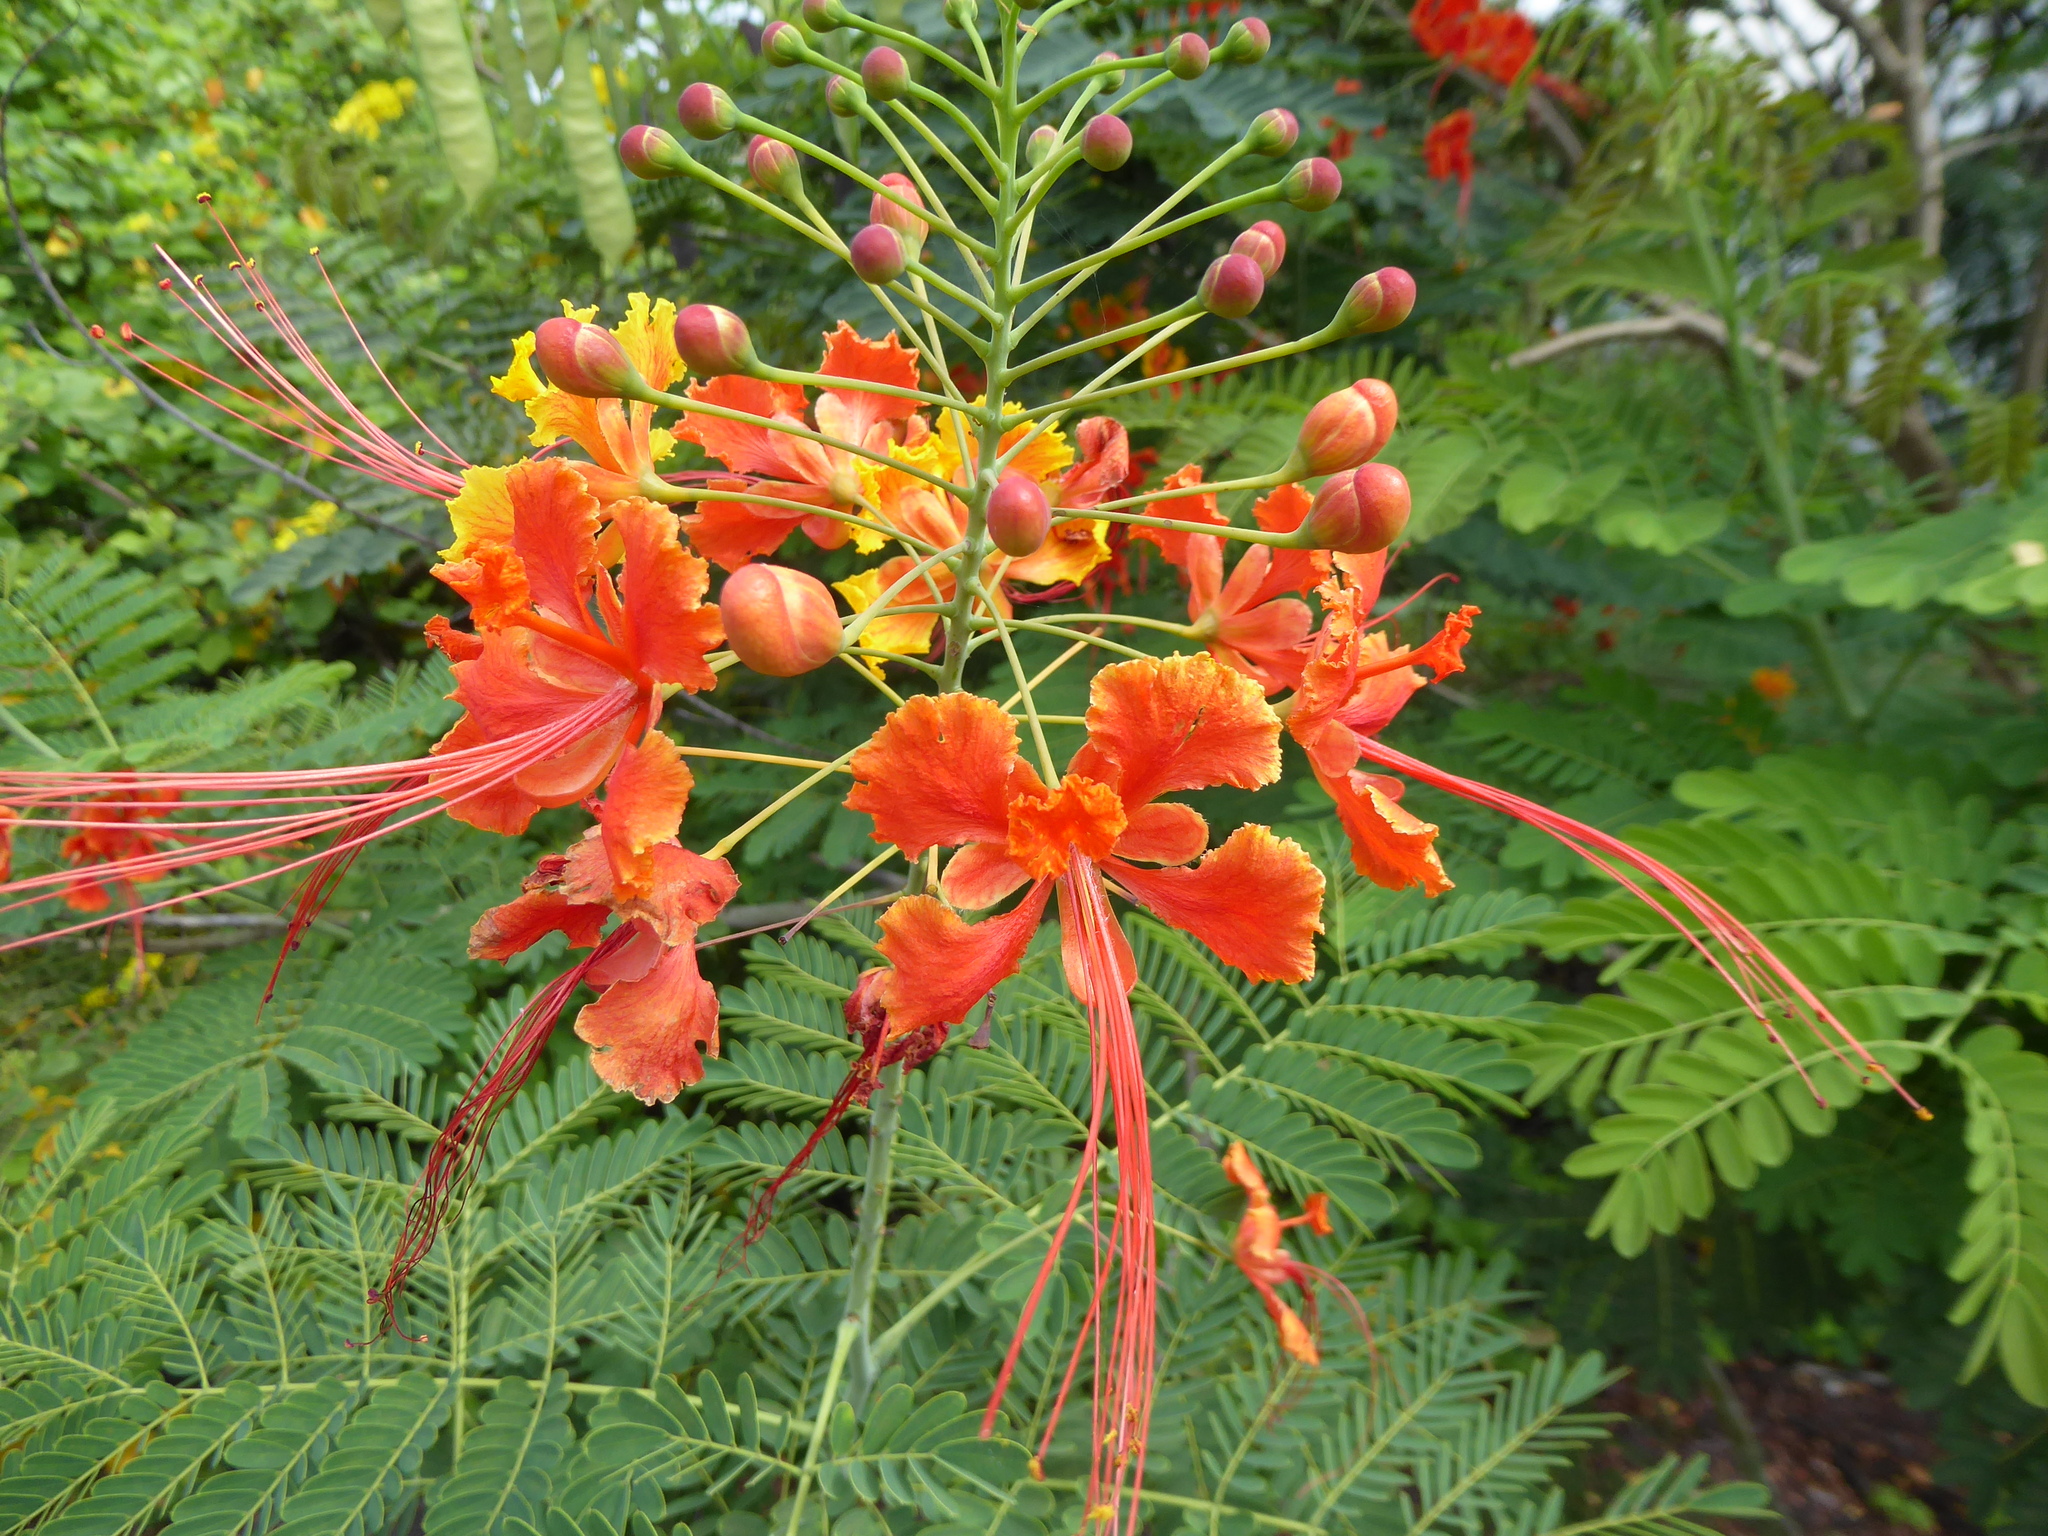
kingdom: Plantae
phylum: Tracheophyta
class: Magnoliopsida
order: Fabales
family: Fabaceae
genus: Caesalpinia
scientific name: Caesalpinia pulcherrima
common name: Pride-of-barbados
